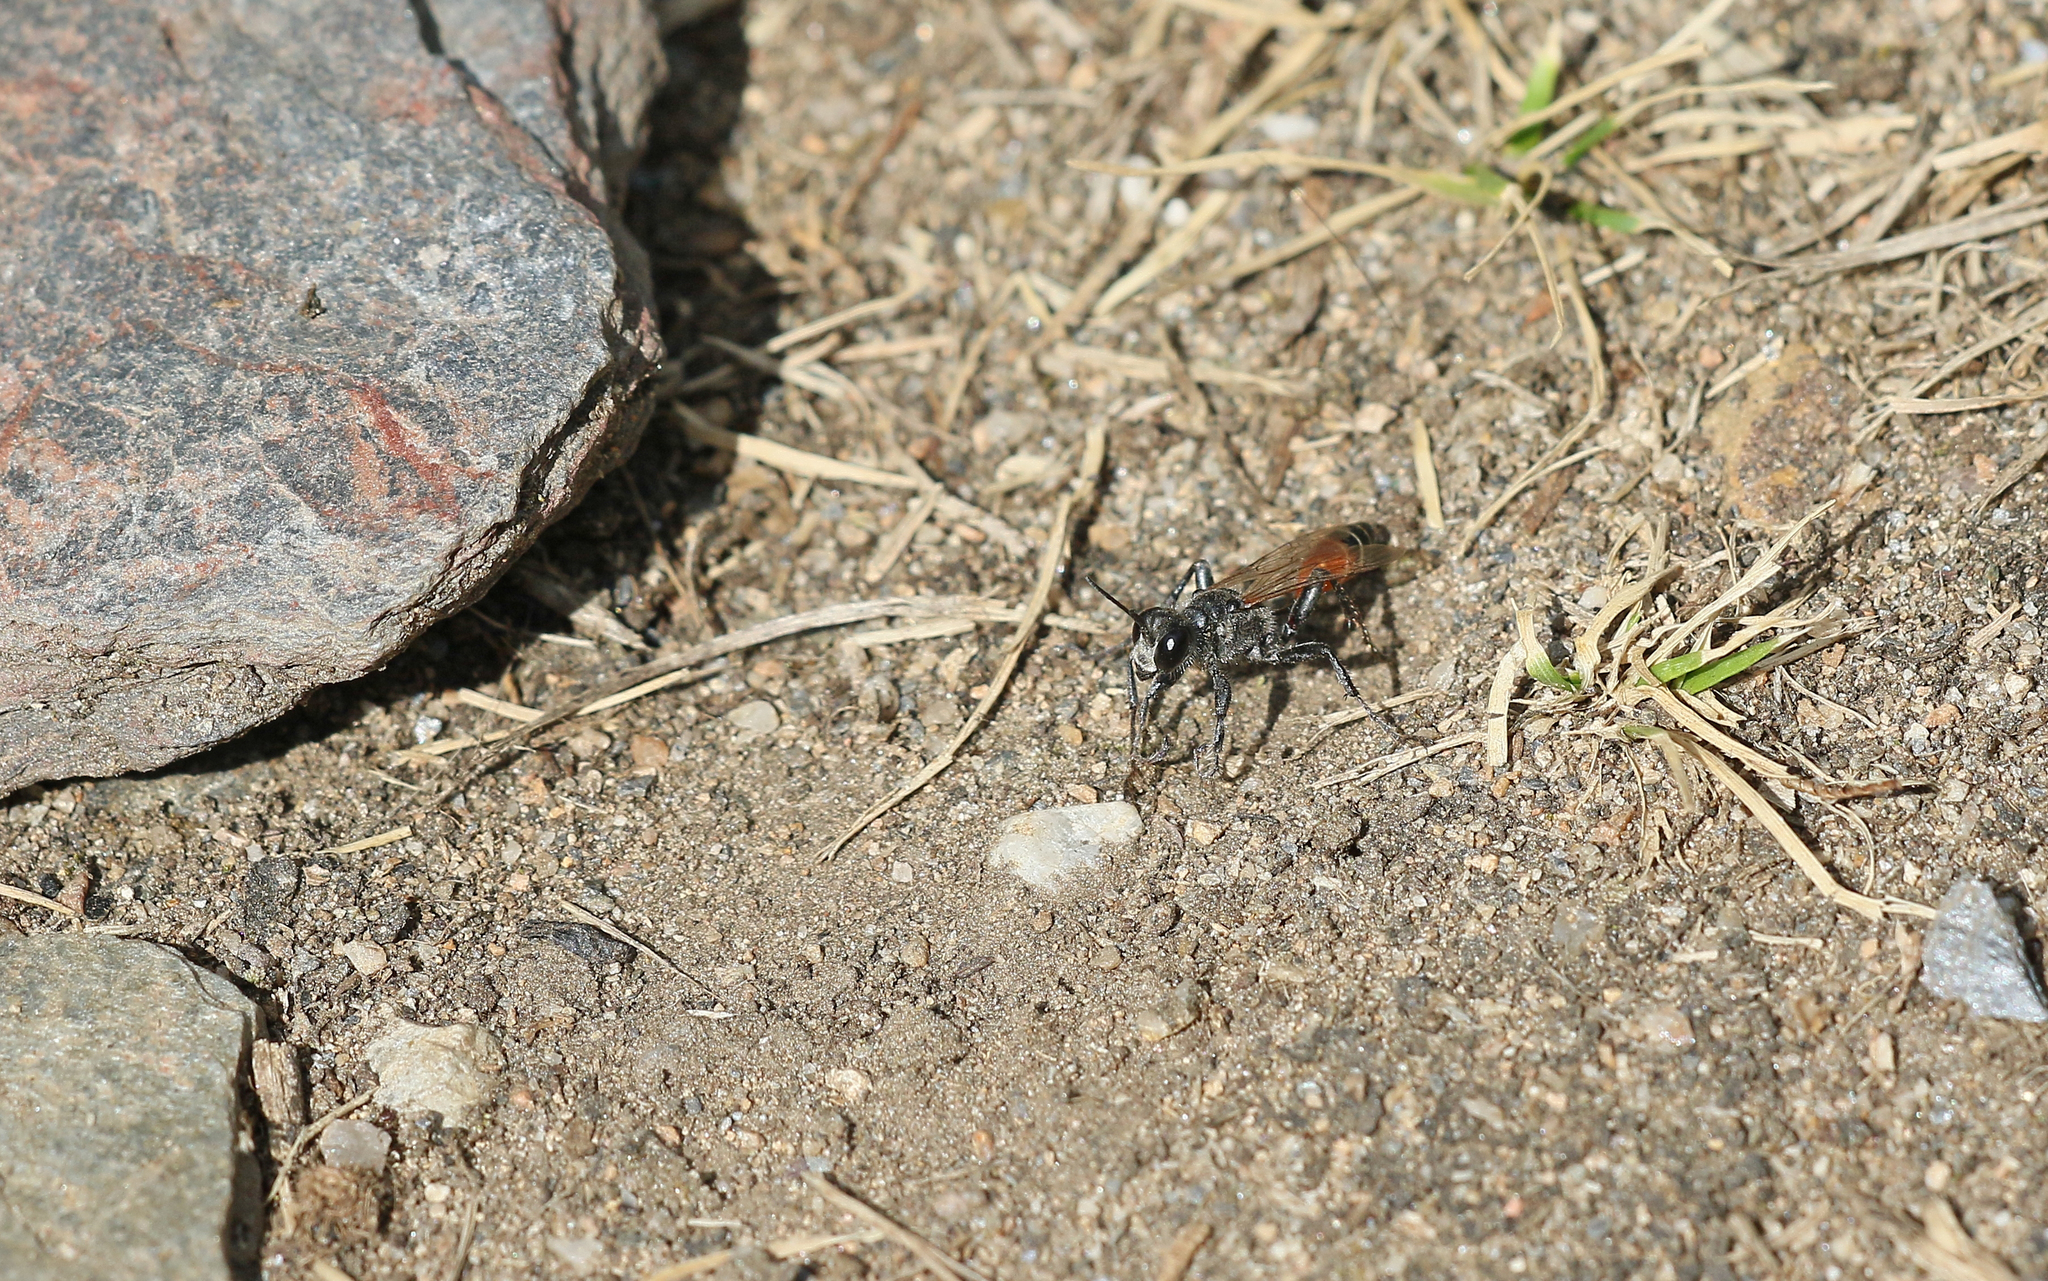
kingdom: Animalia
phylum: Arthropoda
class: Insecta
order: Hymenoptera
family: Sphecidae
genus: Prionyx
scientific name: Prionyx kirbii
